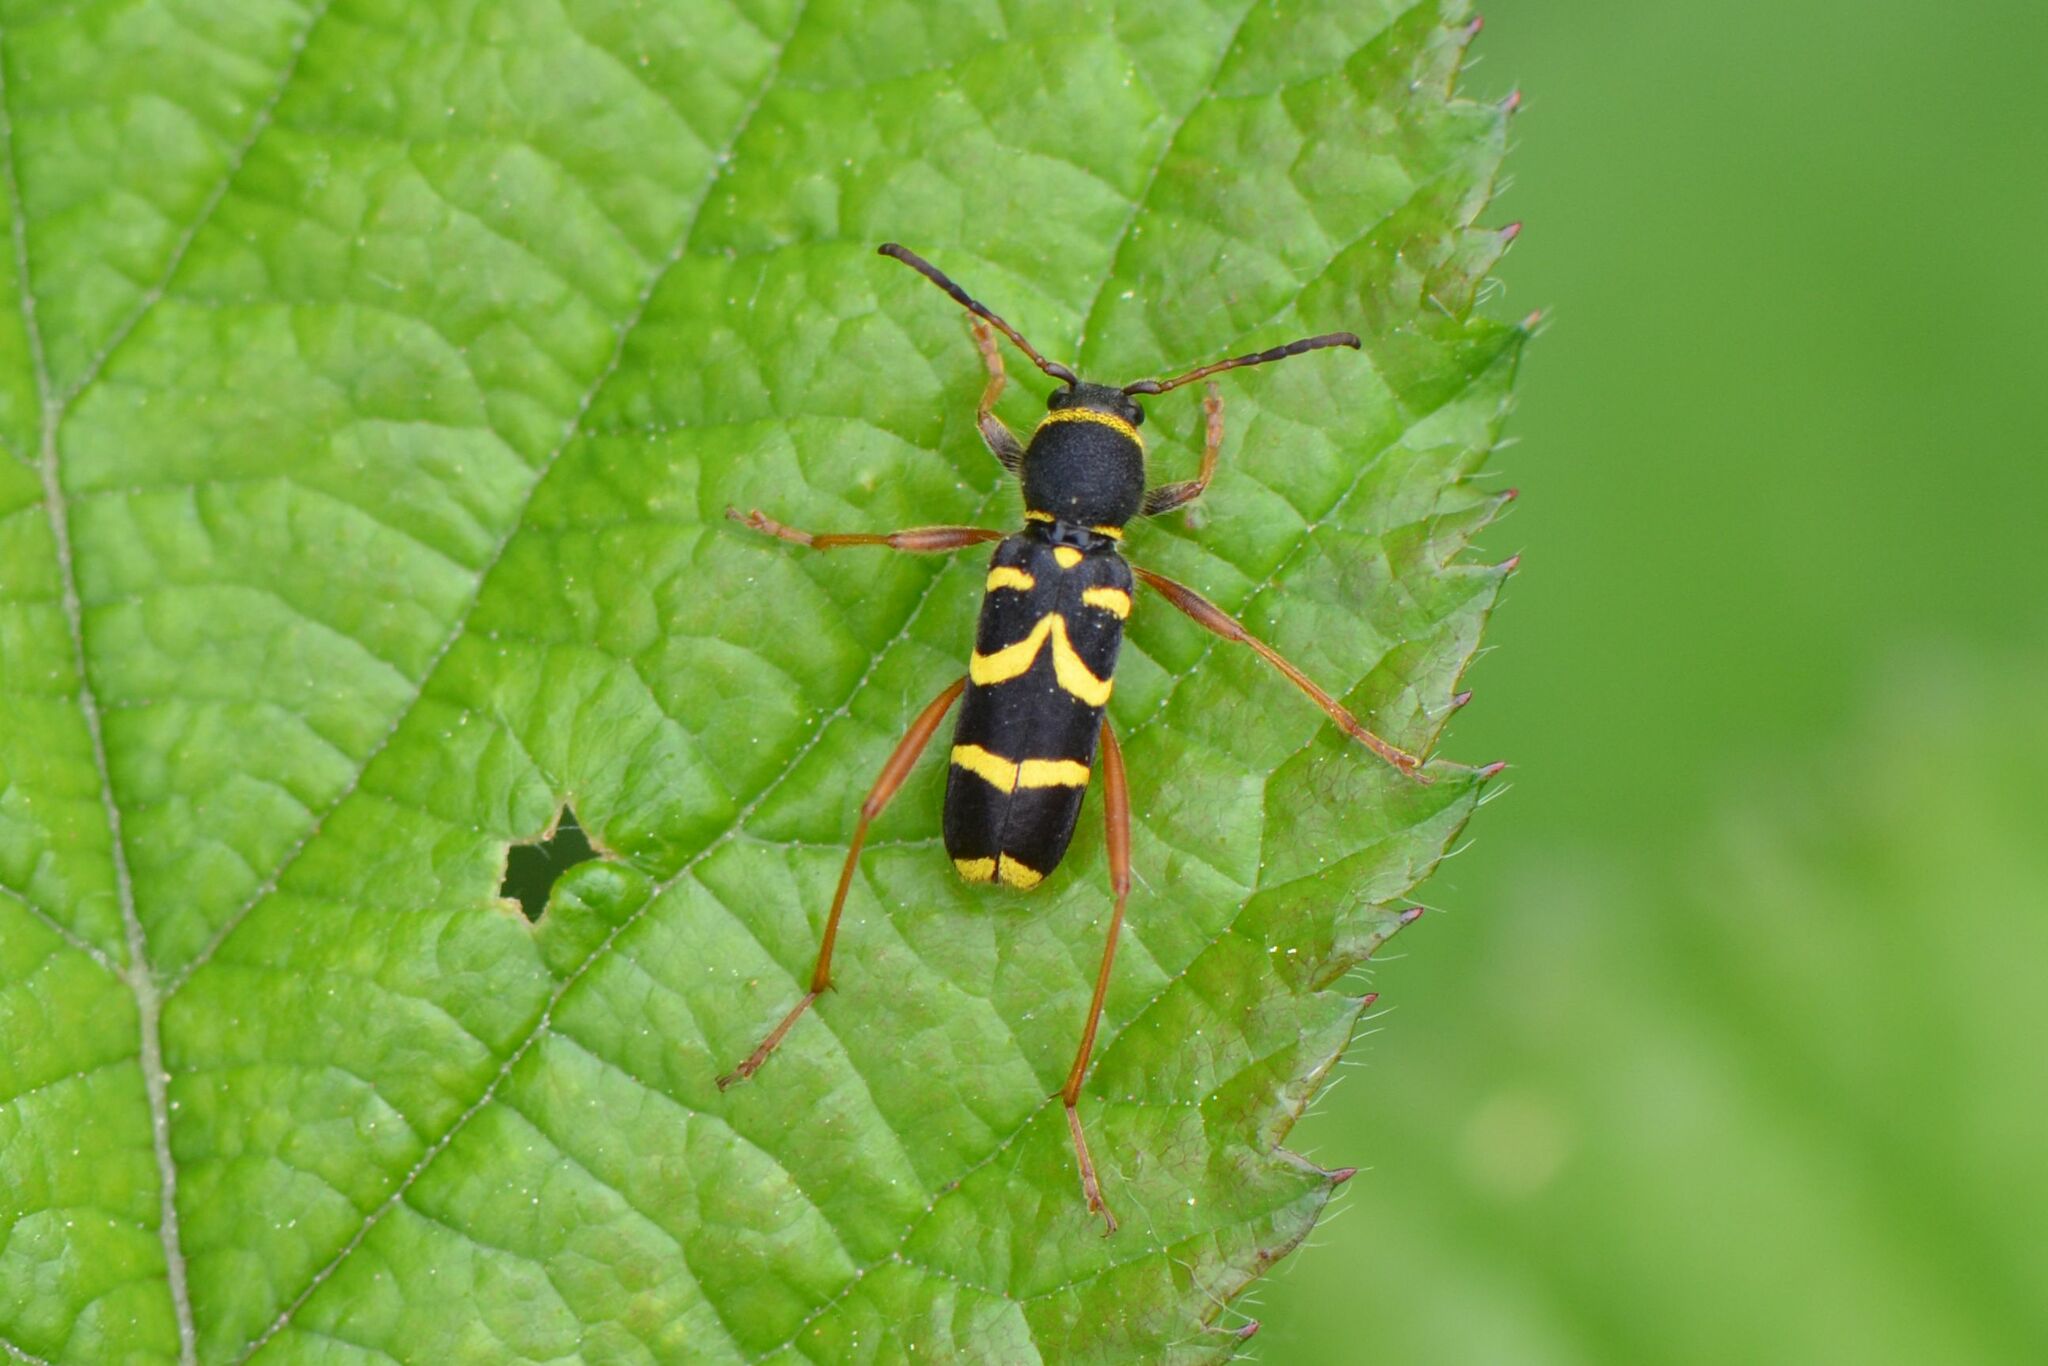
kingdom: Animalia
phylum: Arthropoda
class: Insecta
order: Coleoptera
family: Cerambycidae
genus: Clytus
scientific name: Clytus arietis
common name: Wasp beetle
